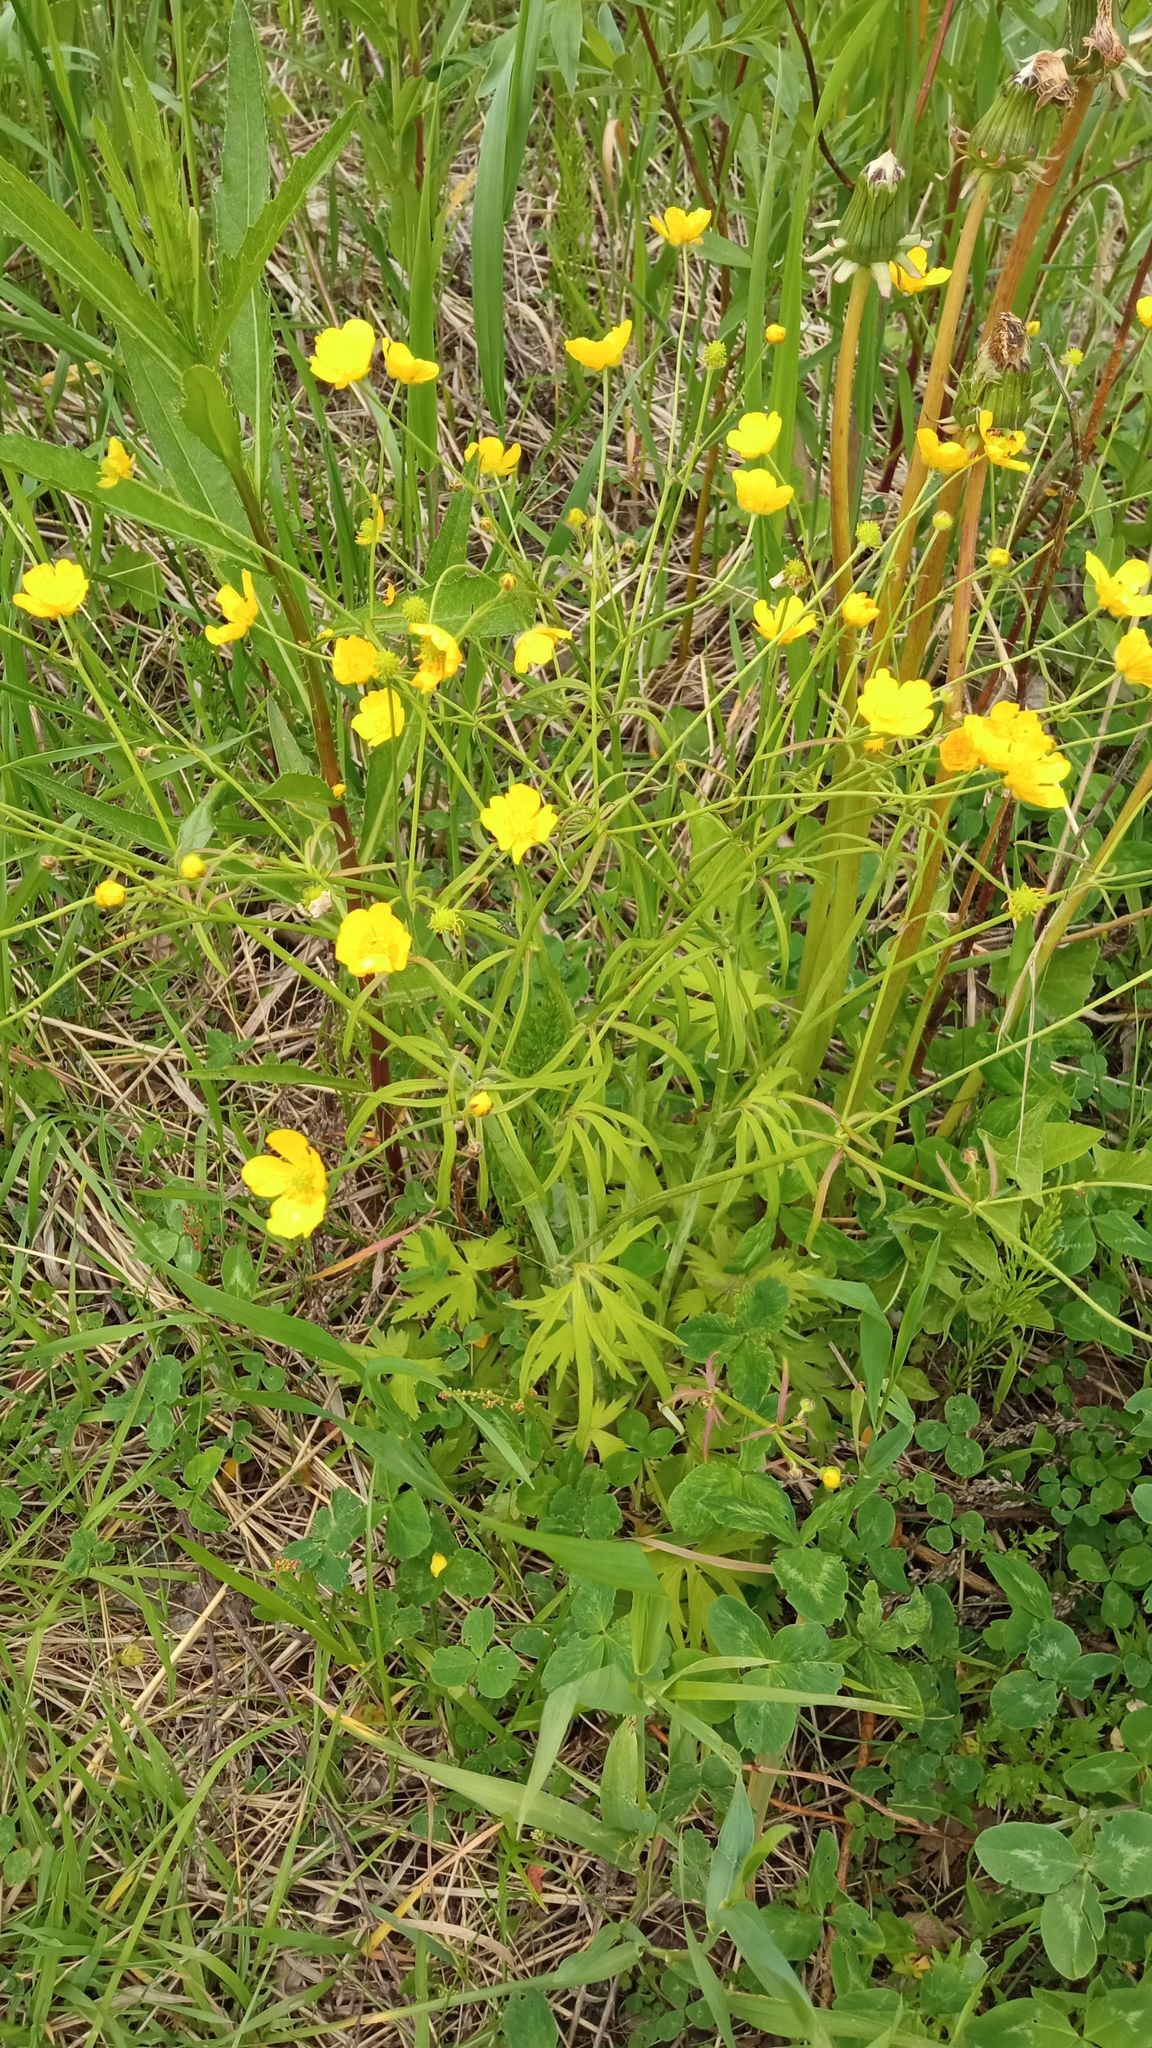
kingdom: Plantae
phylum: Tracheophyta
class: Magnoliopsida
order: Ranunculales
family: Ranunculaceae
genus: Ranunculus
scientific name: Ranunculus acris
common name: Meadow buttercup
